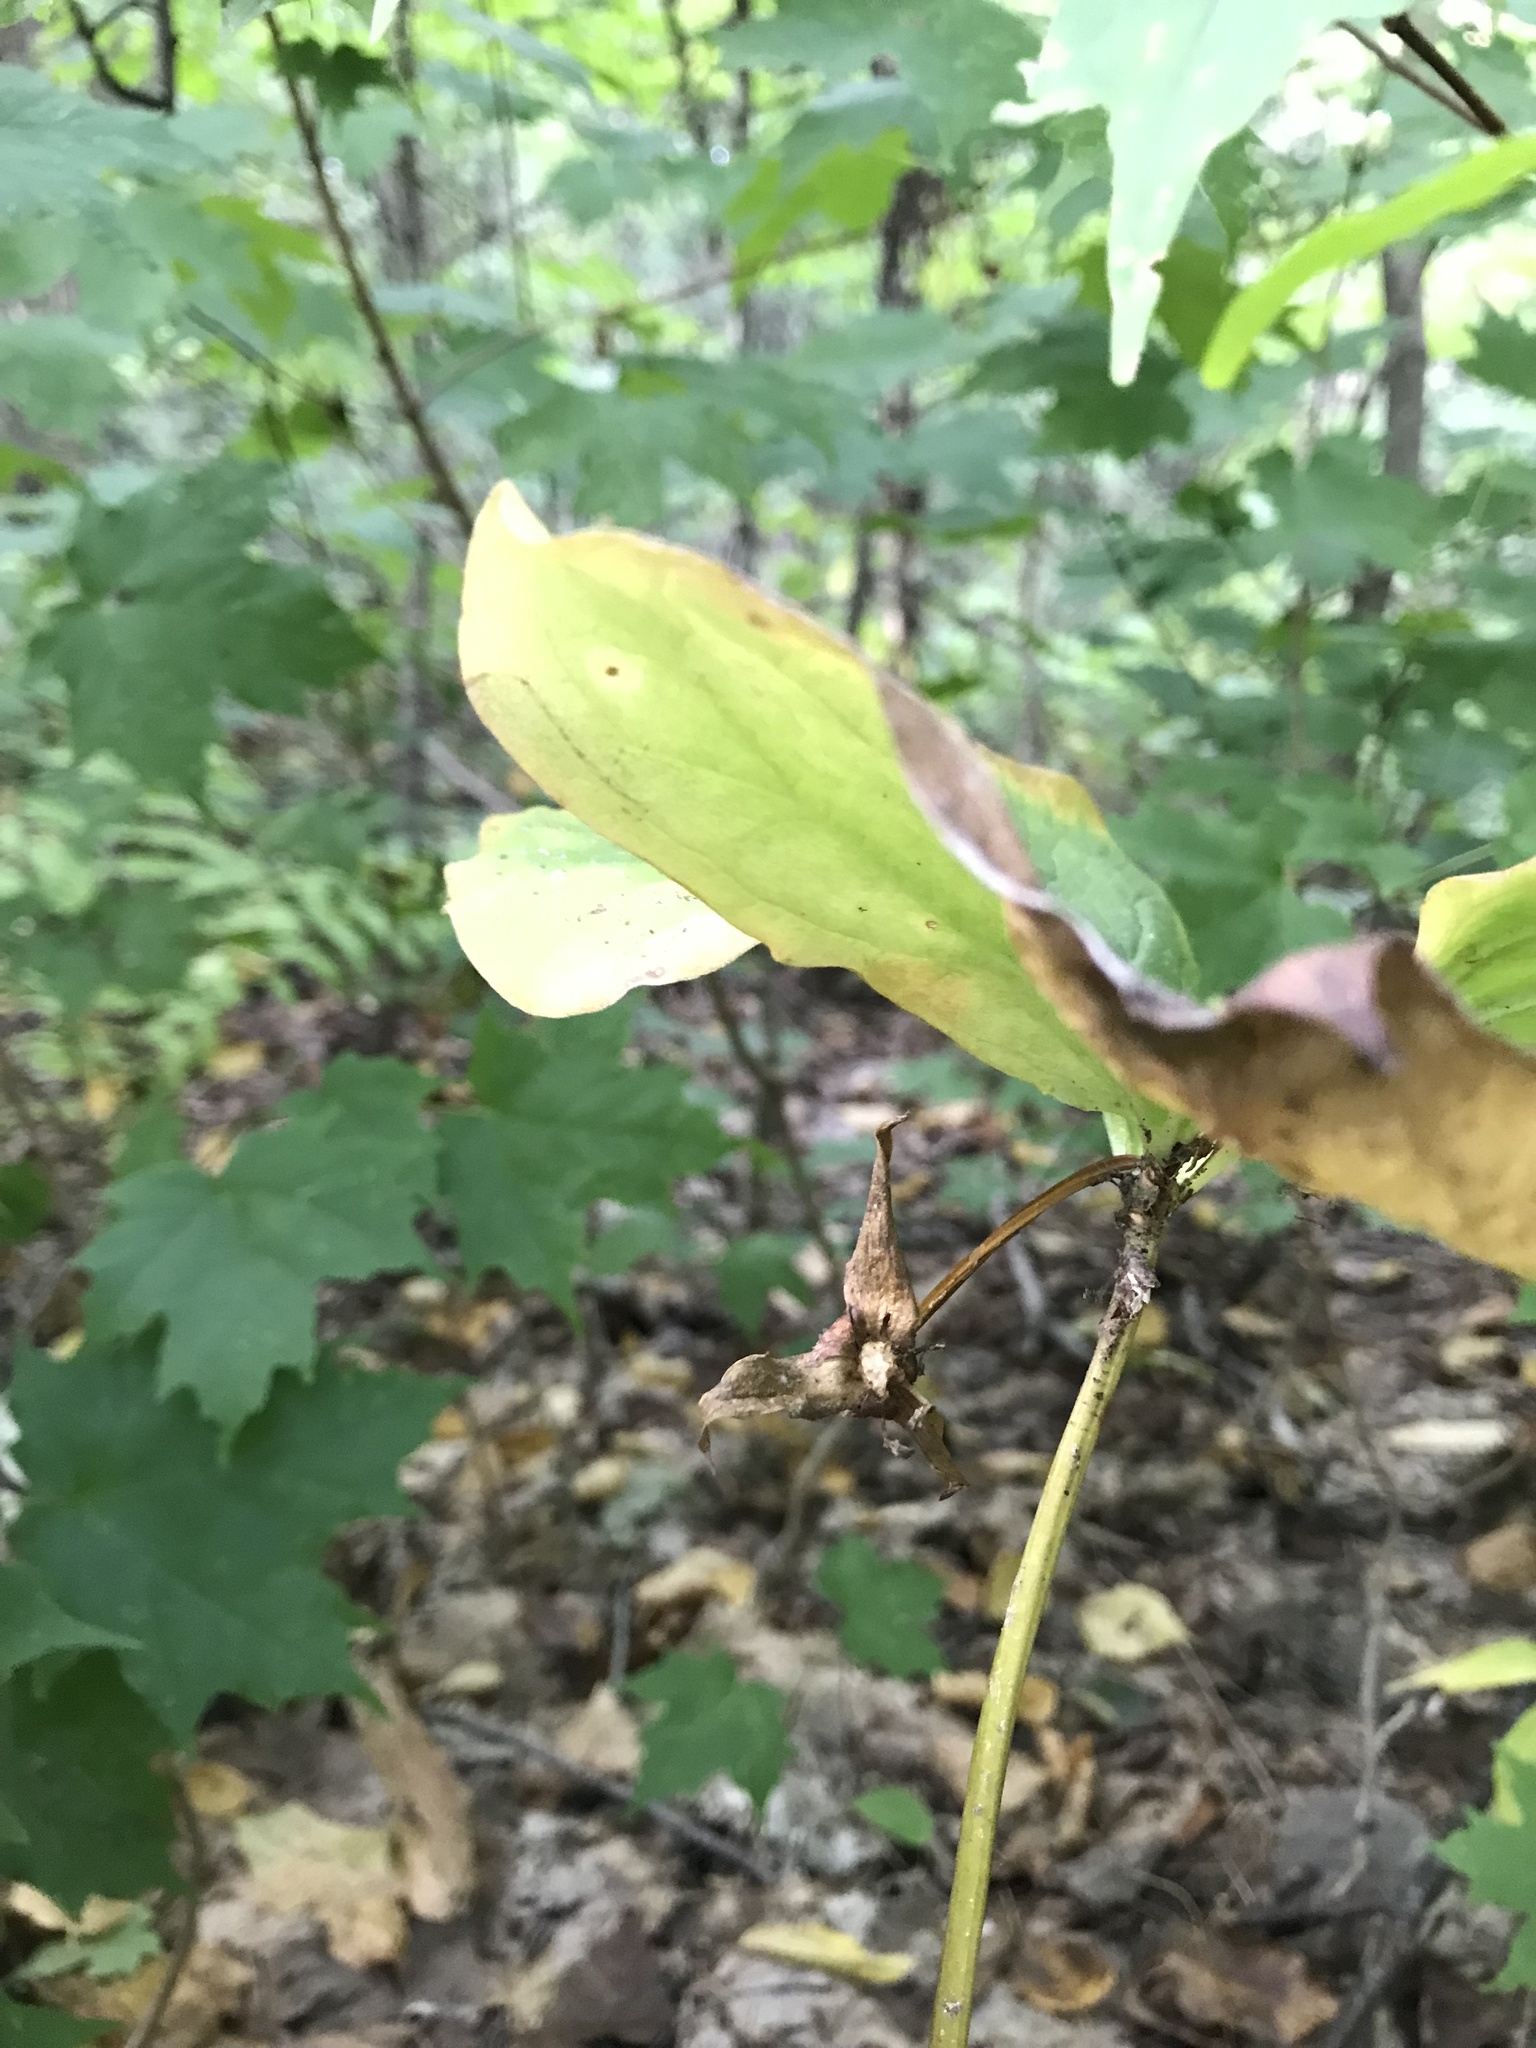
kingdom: Plantae
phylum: Tracheophyta
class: Liliopsida
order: Liliales
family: Melanthiaceae
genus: Trillium
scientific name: Trillium cernuum
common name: Nodding trillium
